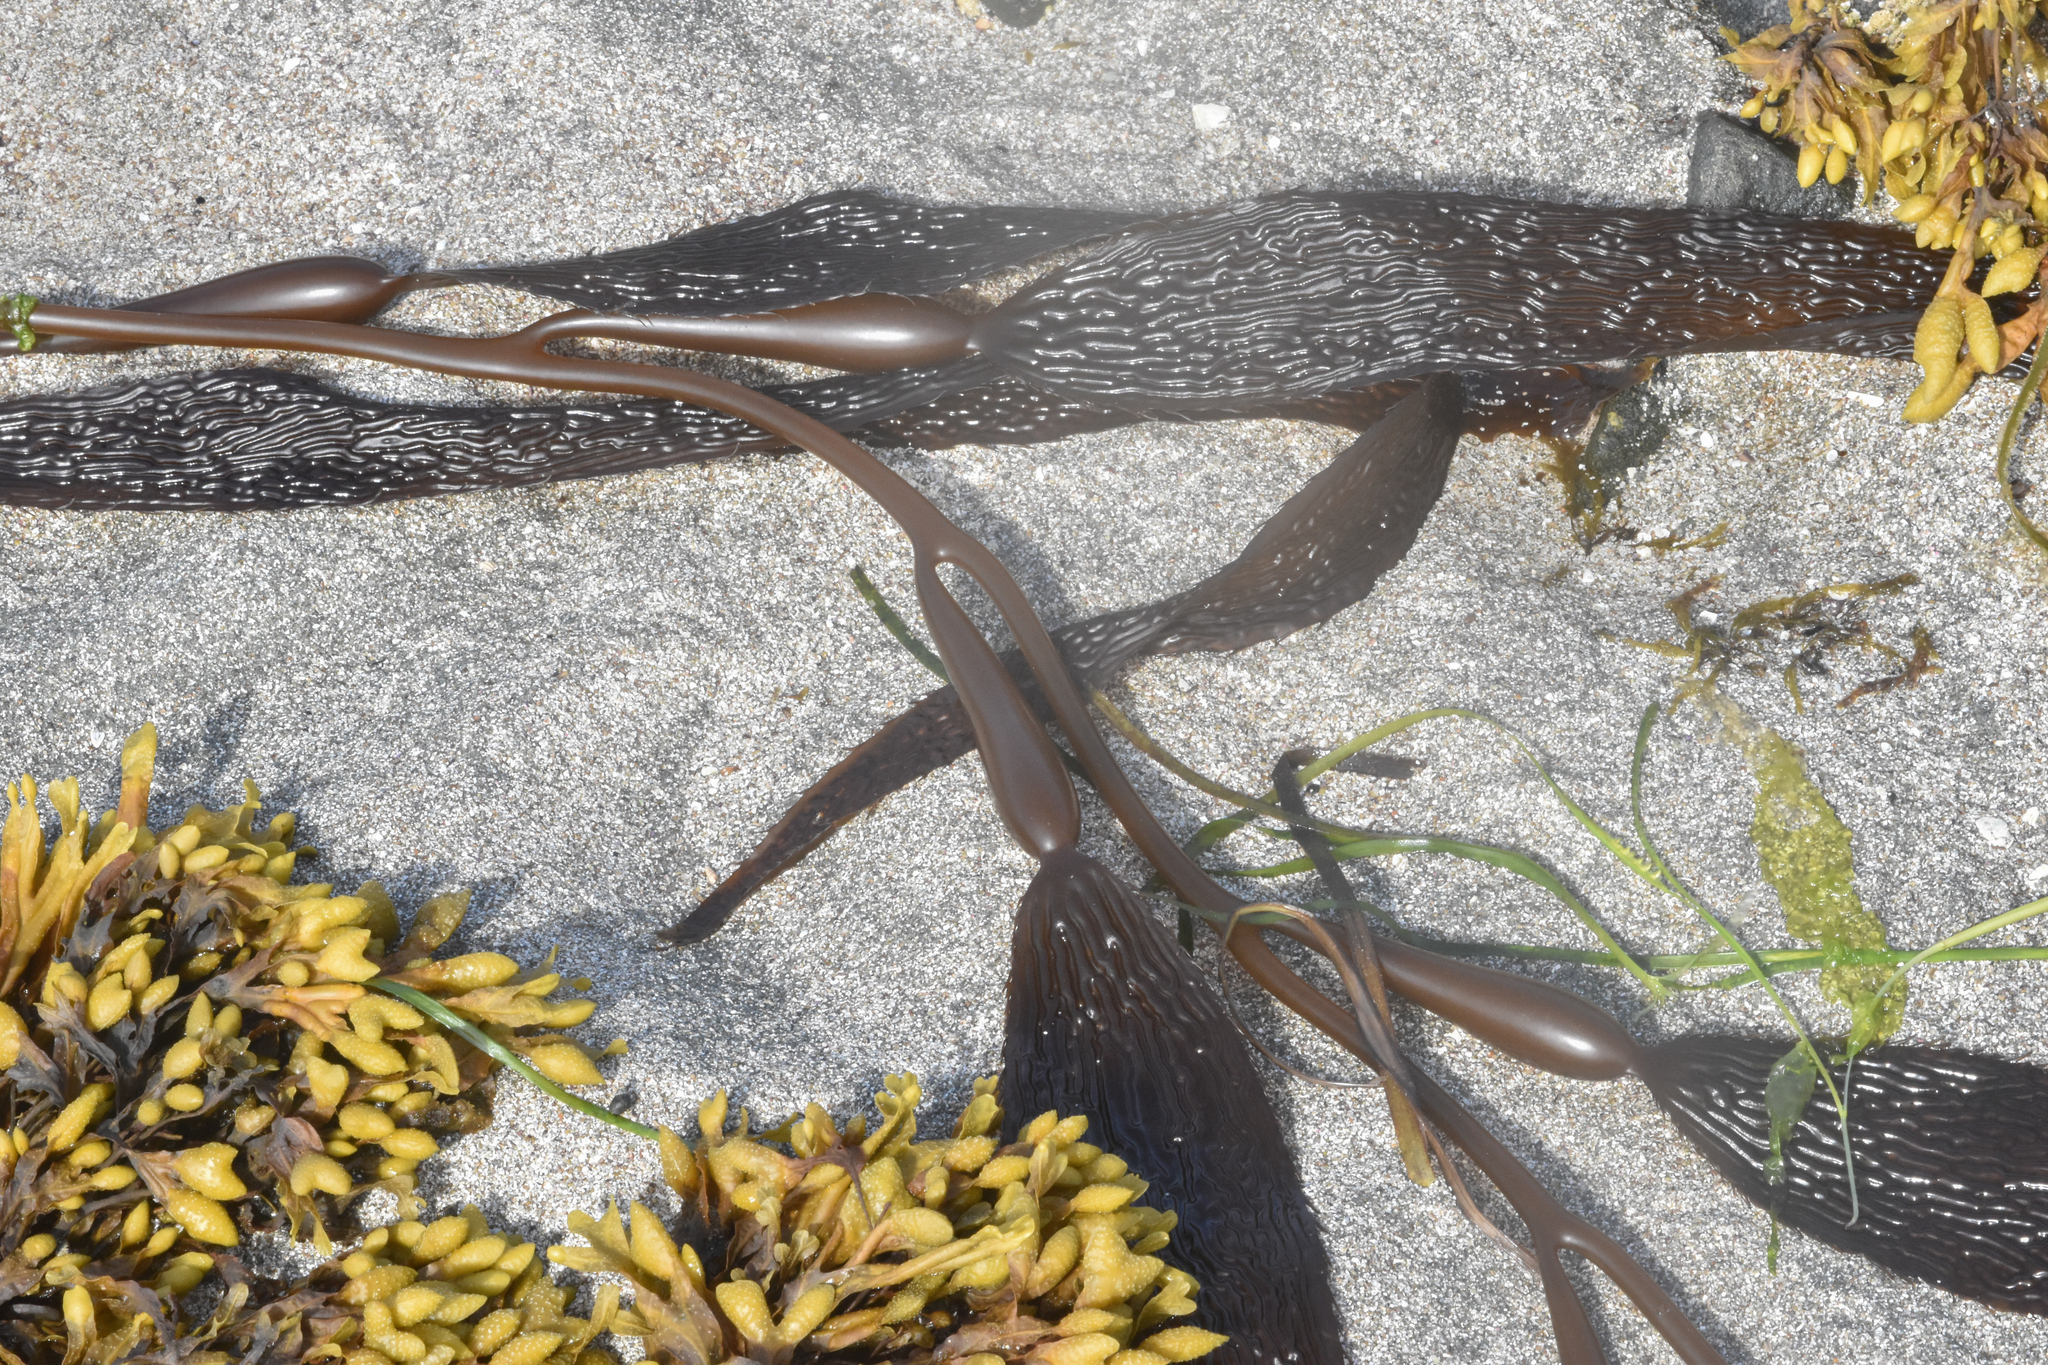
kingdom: Chromista
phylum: Ochrophyta
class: Phaeophyceae
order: Laminariales
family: Laminariaceae
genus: Macrocystis
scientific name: Macrocystis pyrifera
